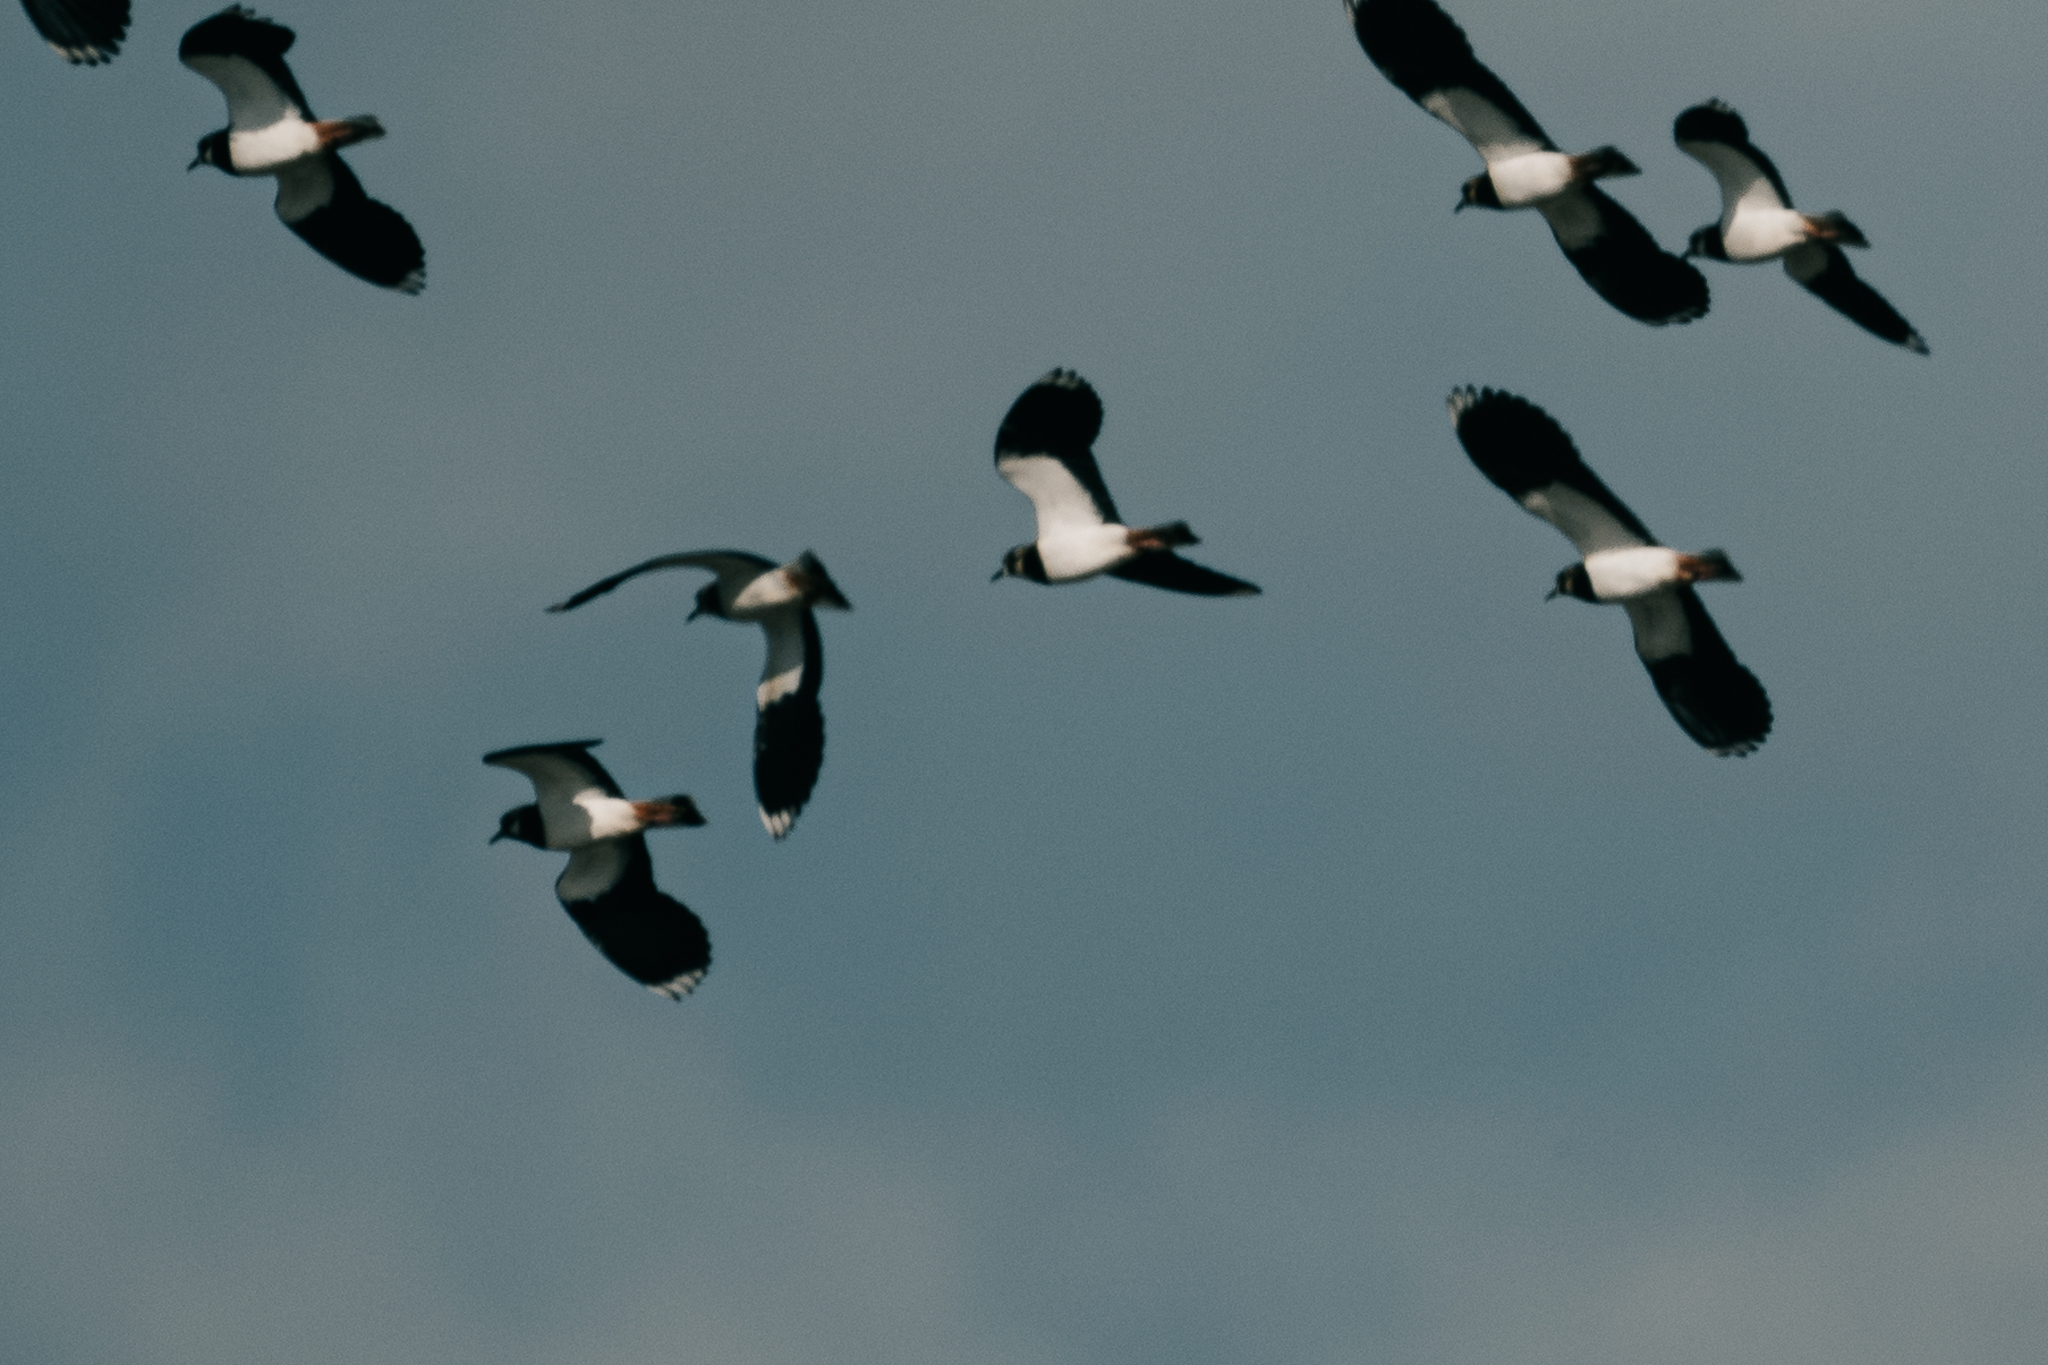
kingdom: Animalia
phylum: Chordata
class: Aves
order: Charadriiformes
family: Charadriidae
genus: Vanellus
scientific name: Vanellus vanellus
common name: Northern lapwing
